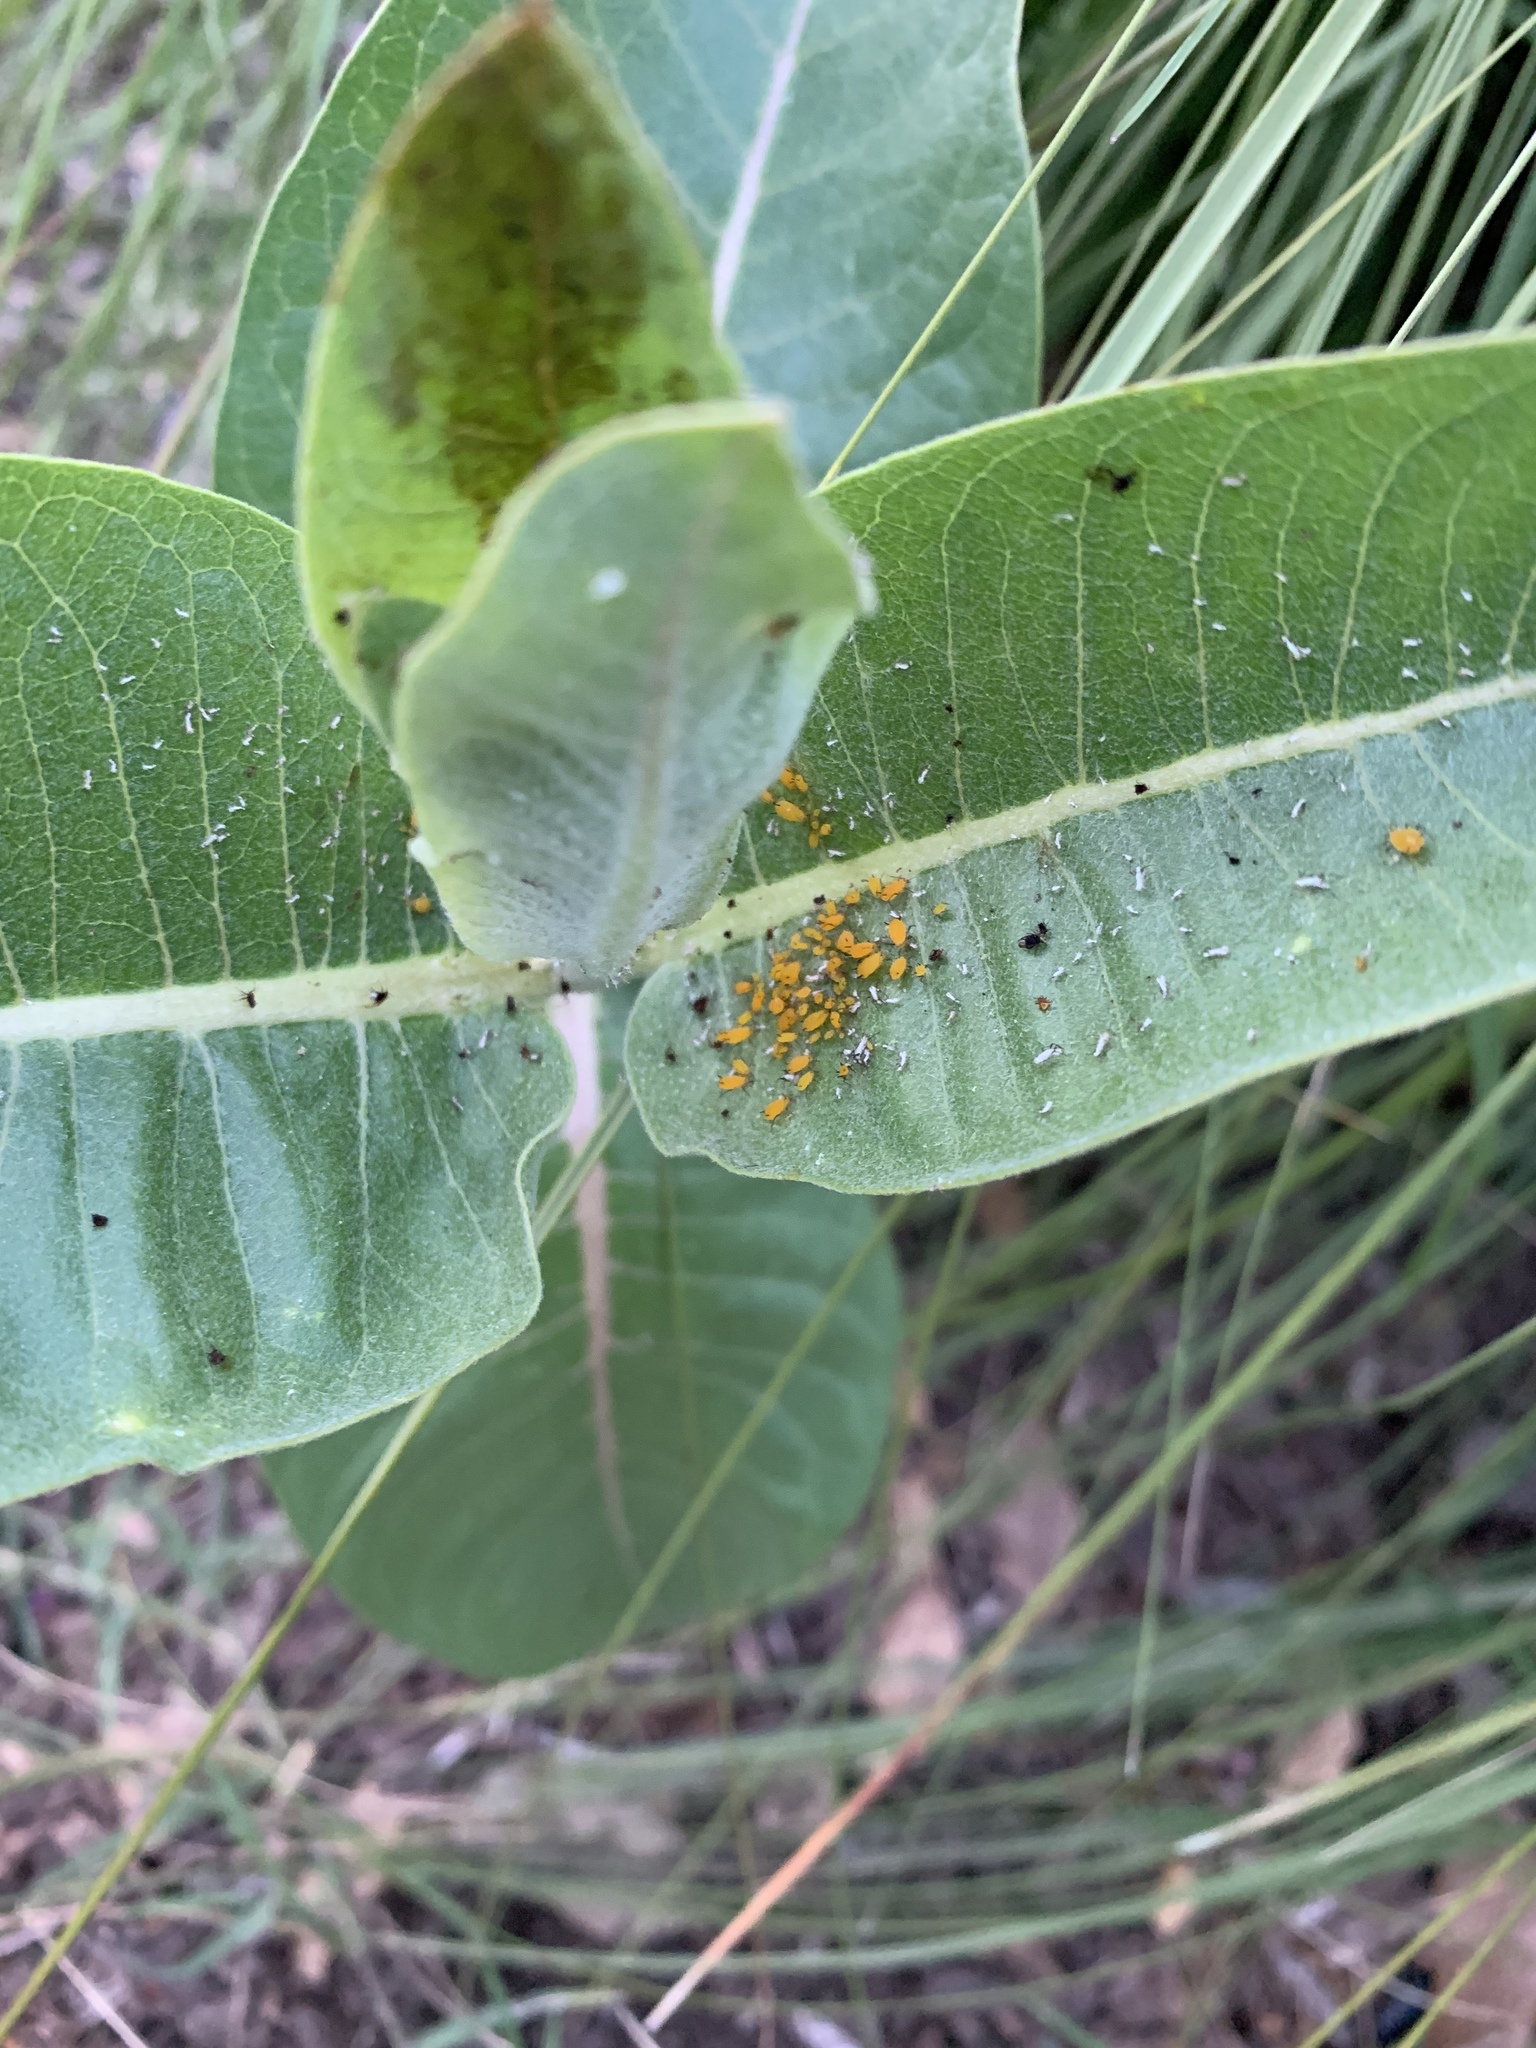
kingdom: Animalia
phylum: Arthropoda
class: Insecta
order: Hemiptera
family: Aphididae
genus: Aphis
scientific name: Aphis nerii
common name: Oleander aphid
